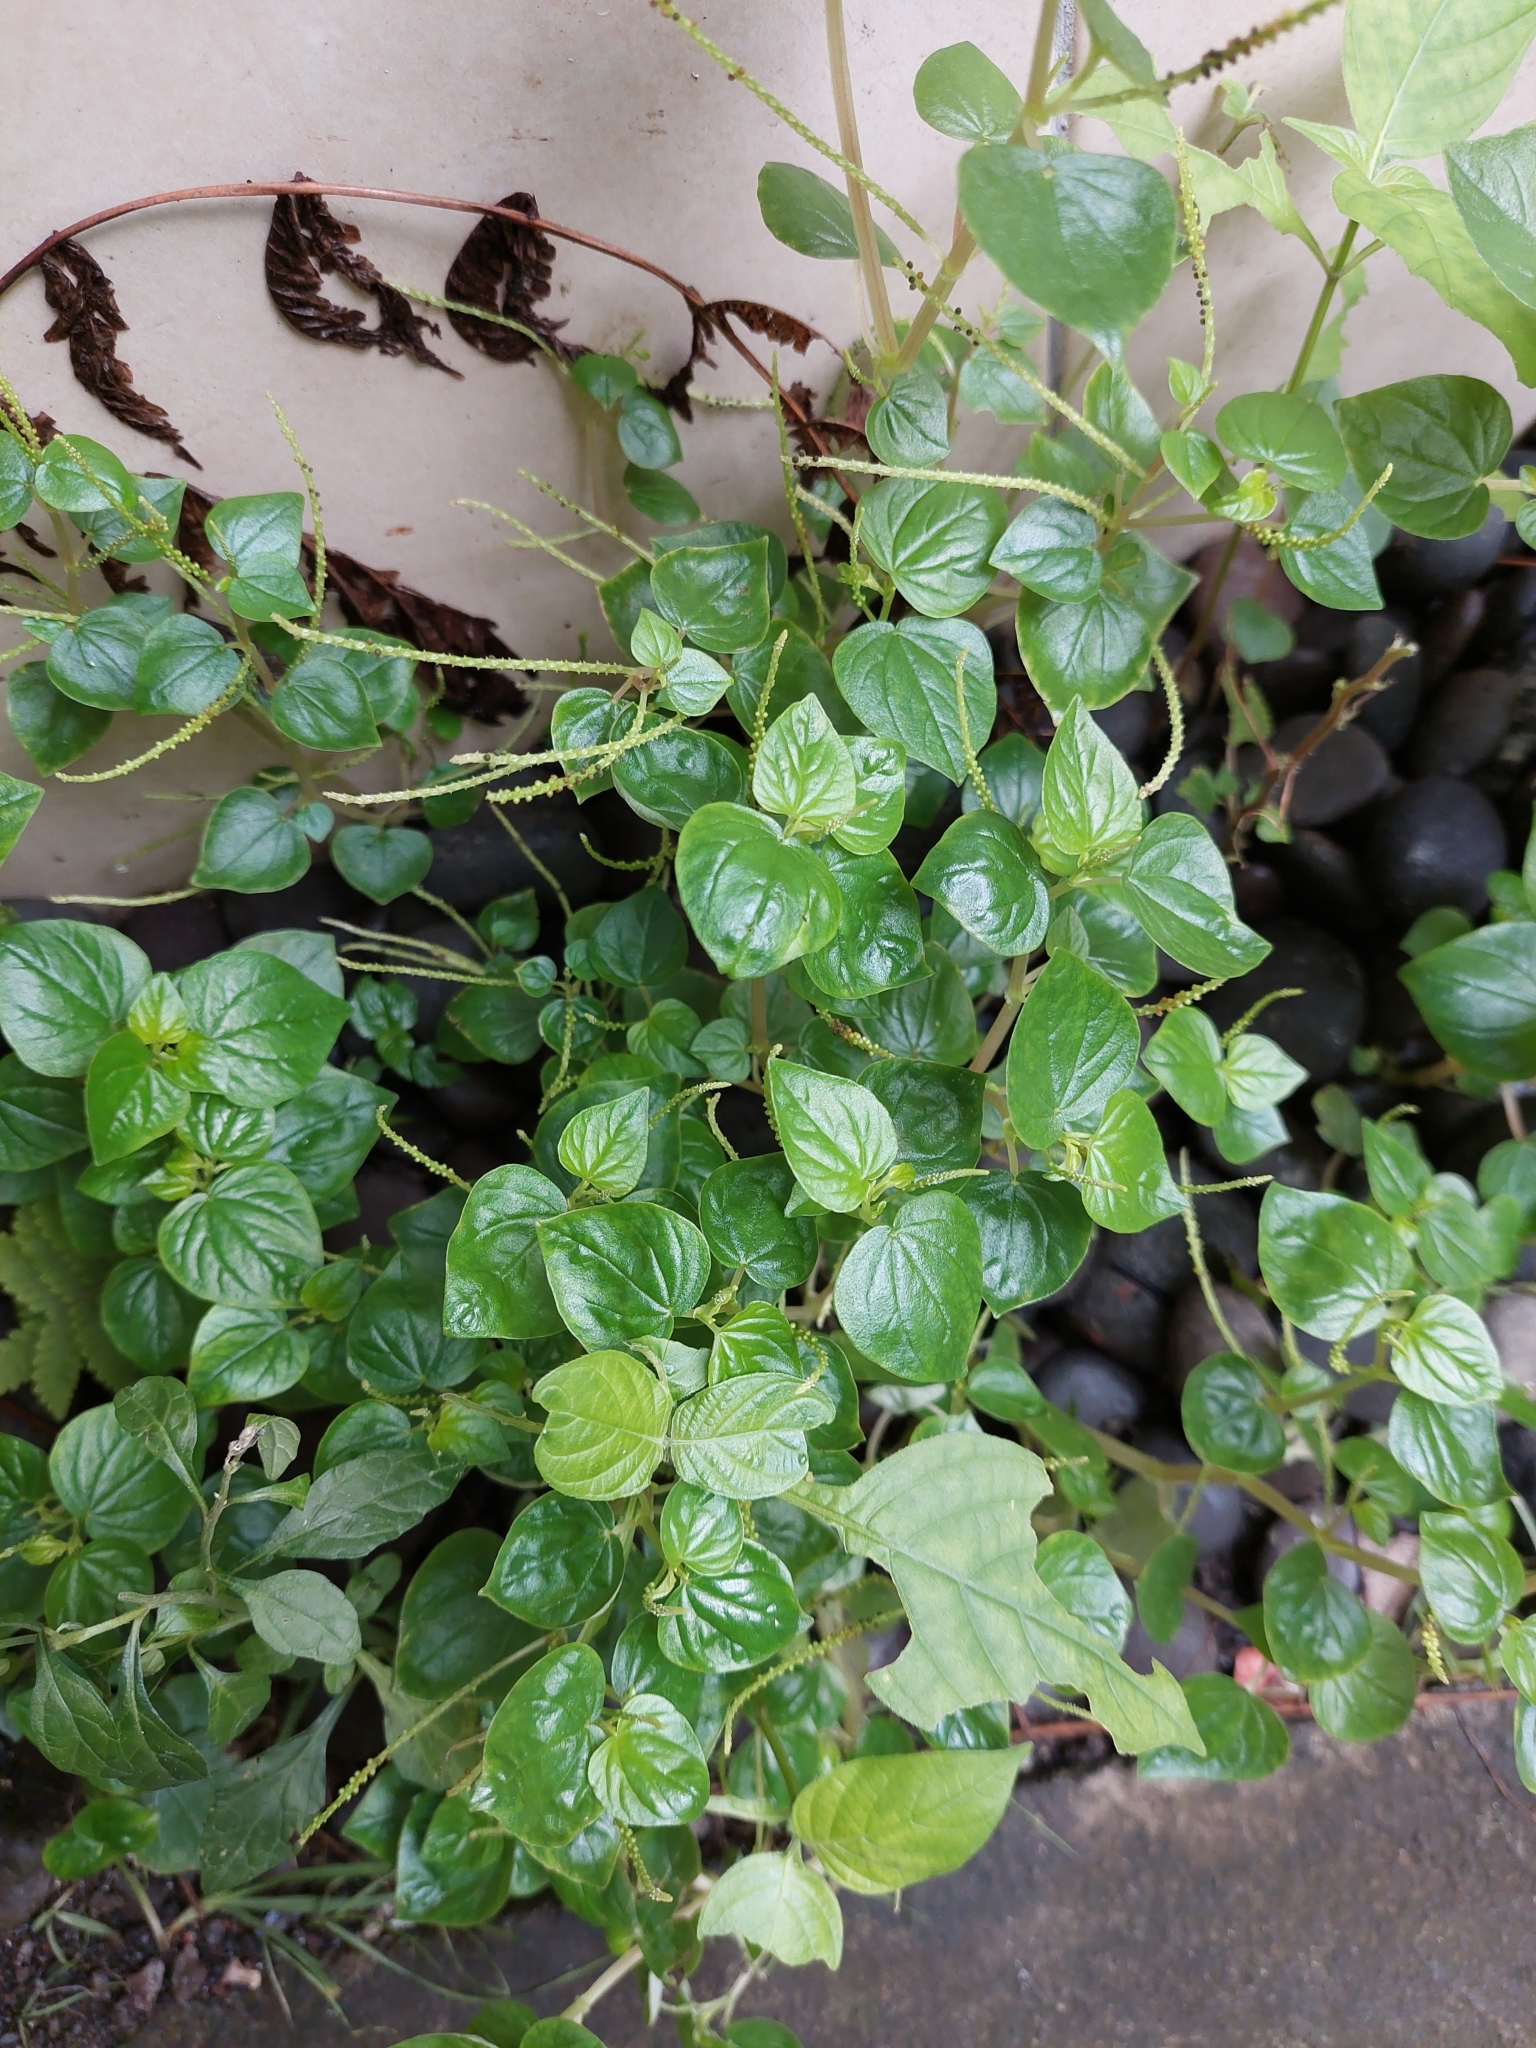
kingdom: Plantae
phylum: Tracheophyta
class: Magnoliopsida
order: Piperales
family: Piperaceae
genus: Peperomia
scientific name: Peperomia pellucida
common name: Man to man
